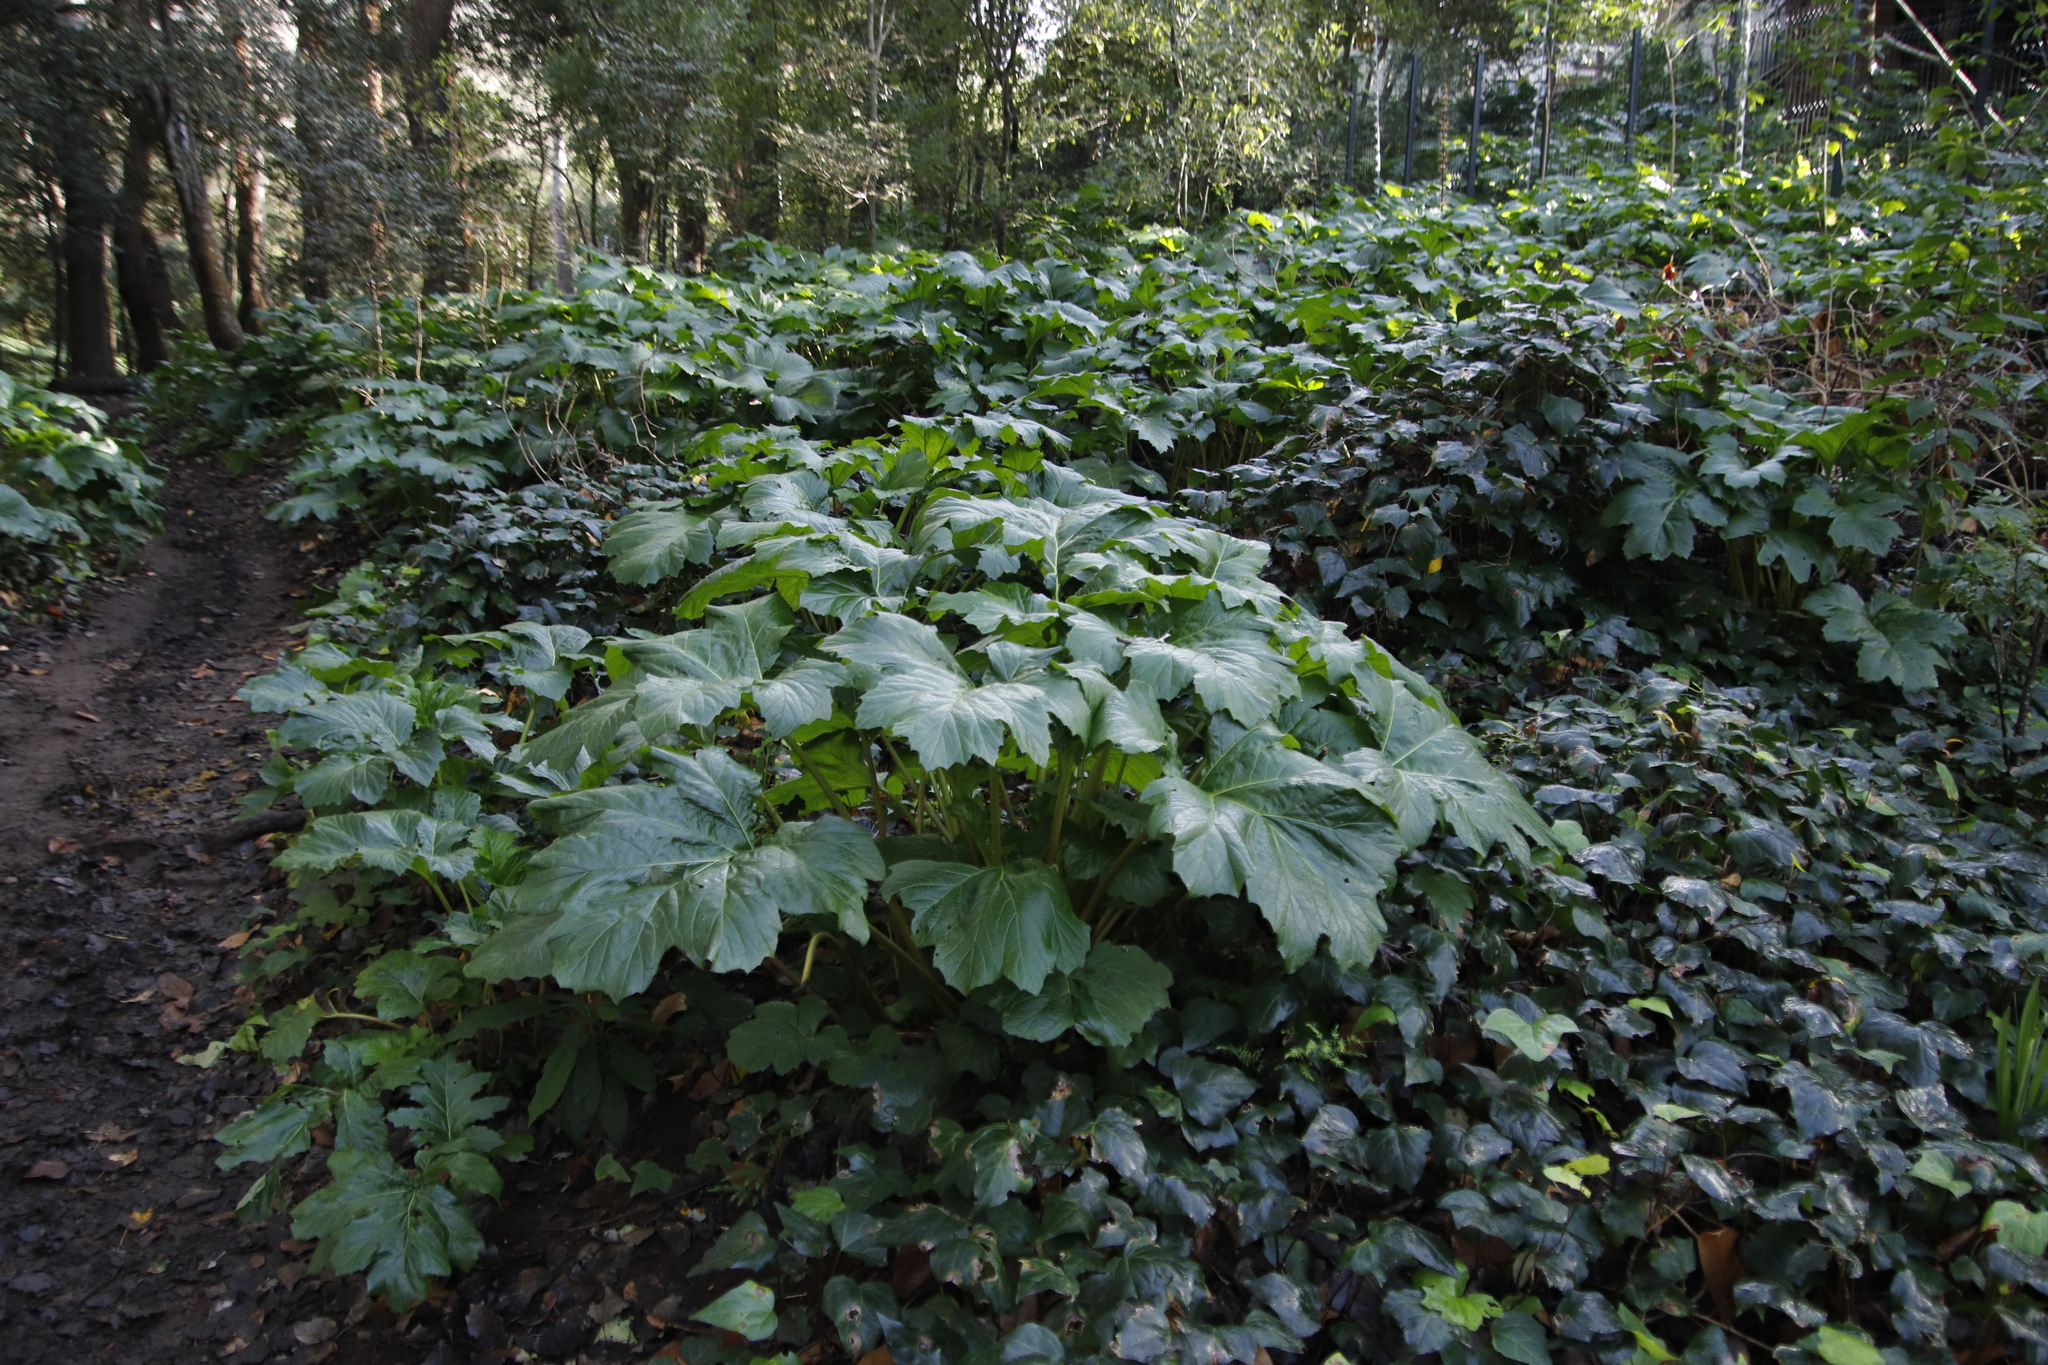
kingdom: Plantae
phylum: Tracheophyta
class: Magnoliopsida
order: Lamiales
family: Acanthaceae
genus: Acanthus
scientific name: Acanthus mollis
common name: Bear's-breech
